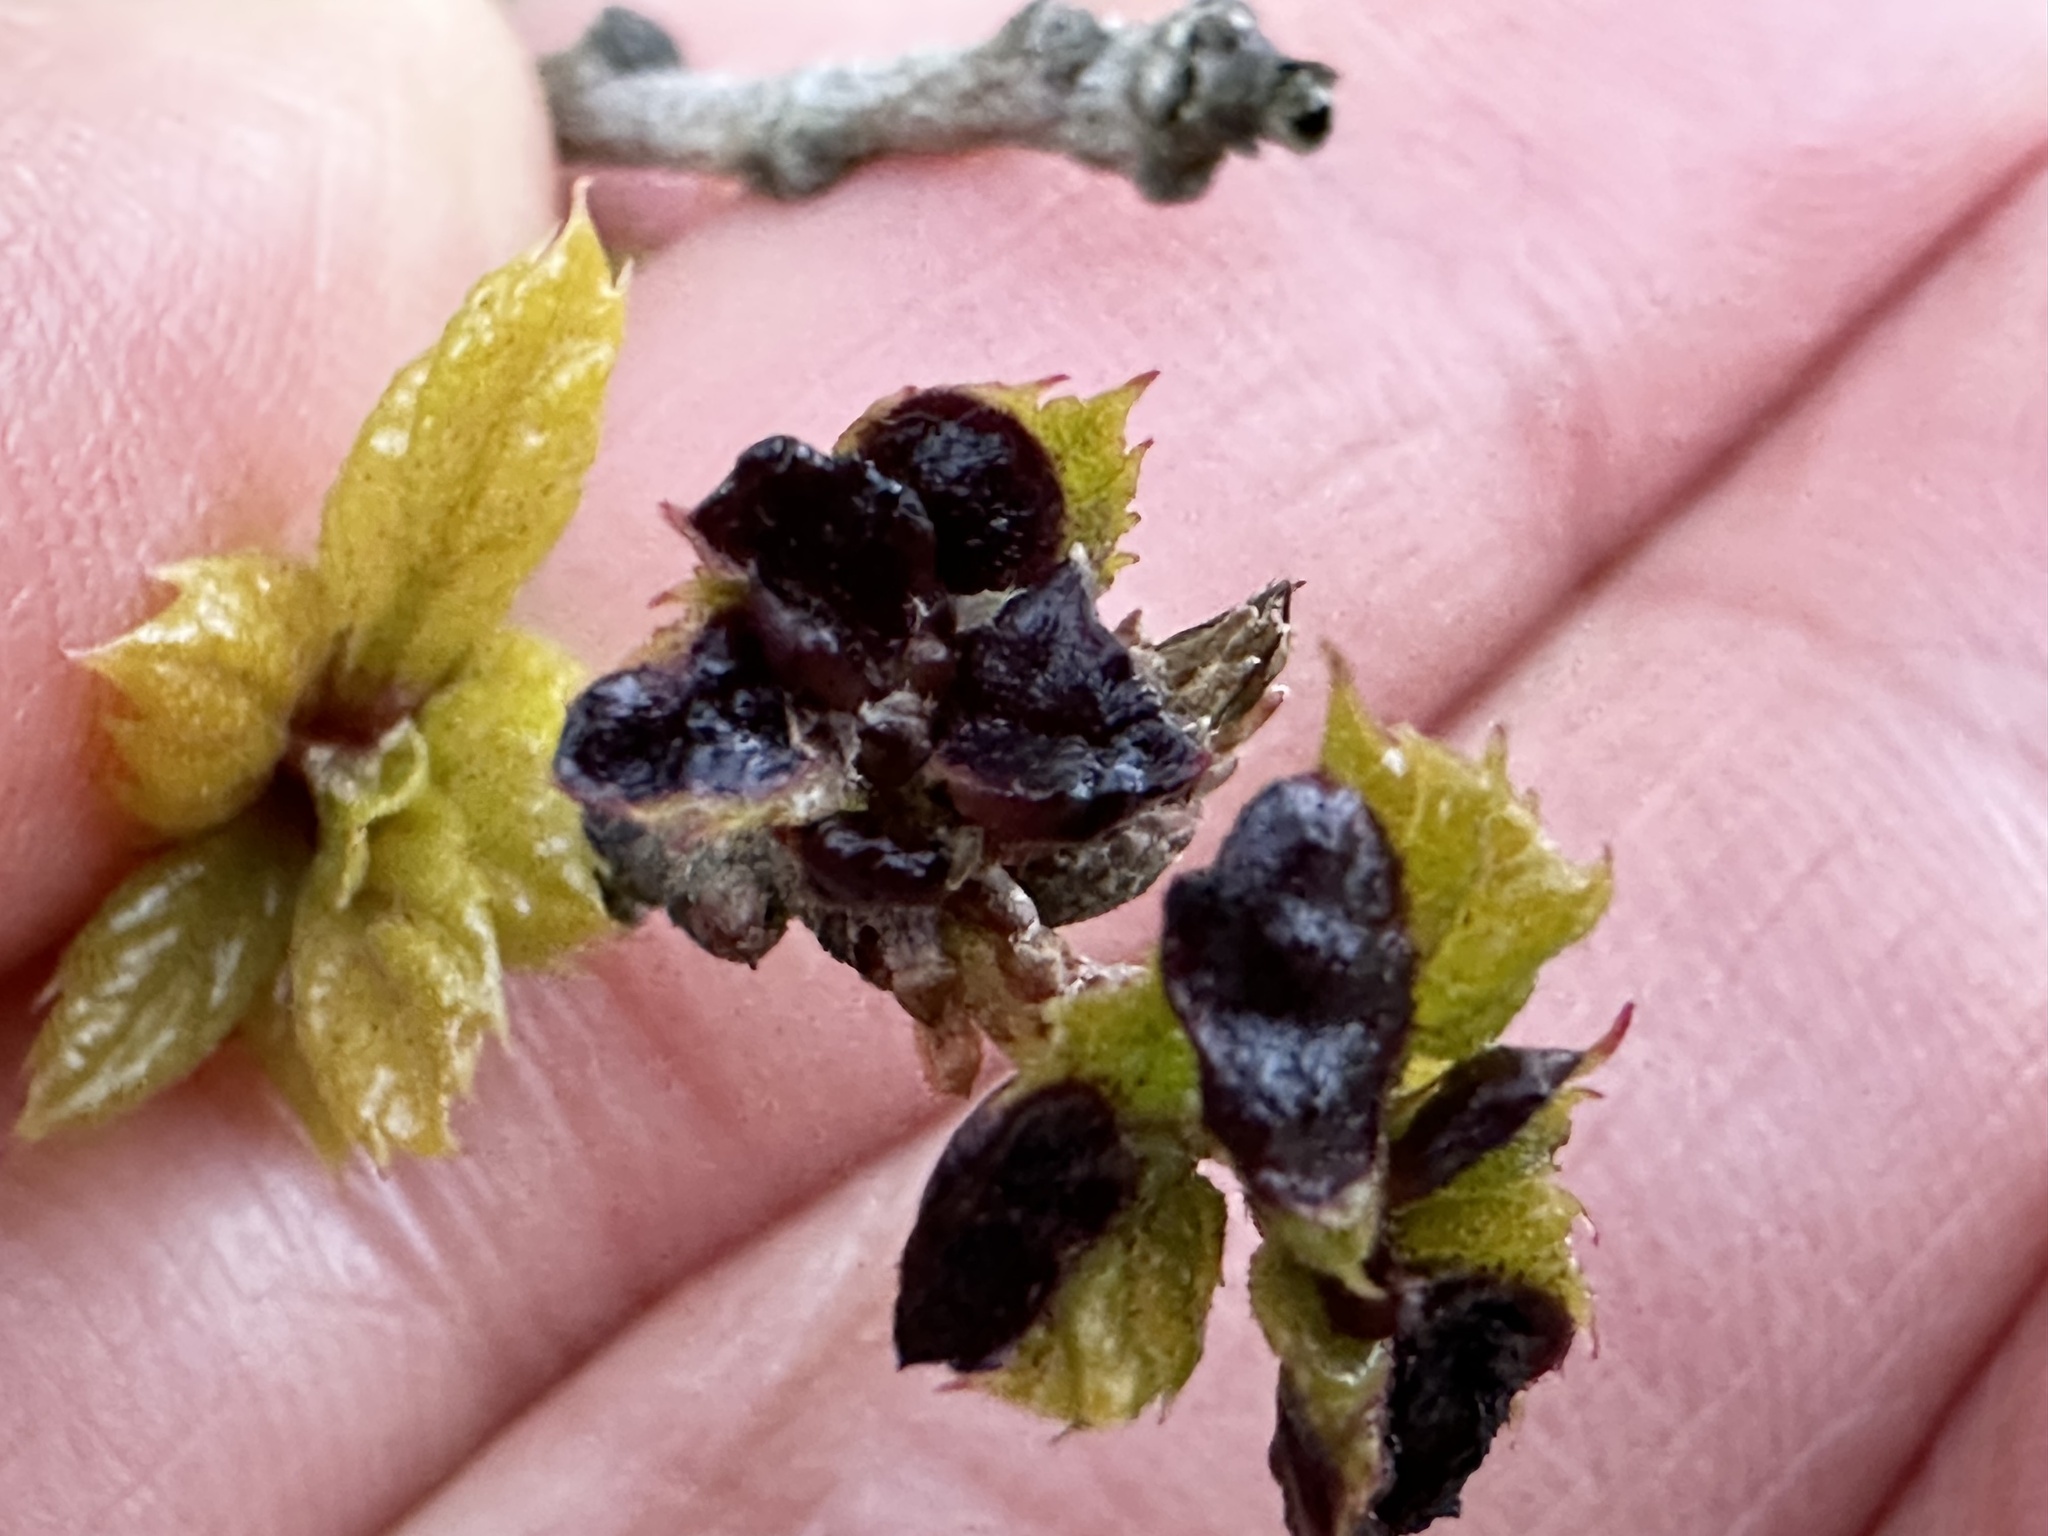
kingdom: Animalia
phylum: Arthropoda
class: Insecta
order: Hymenoptera
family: Cynipidae
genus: Dryocosmus
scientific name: Dryocosmus
